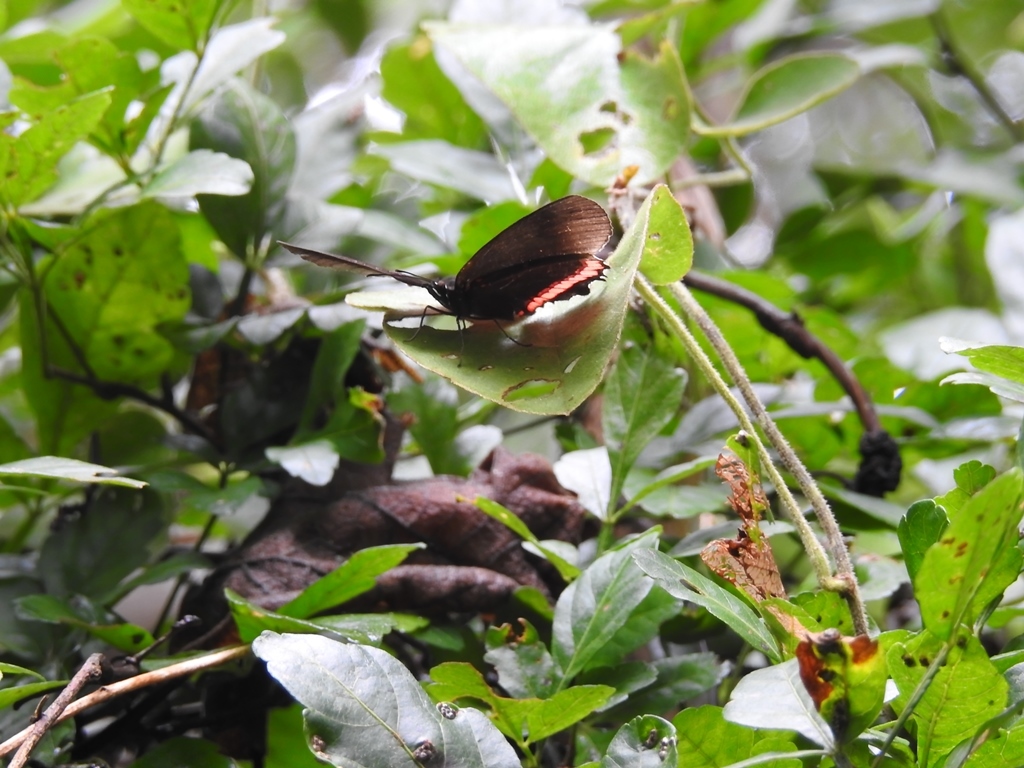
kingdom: Animalia
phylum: Arthropoda
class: Insecta
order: Lepidoptera
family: Nymphalidae
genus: Biblis
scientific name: Biblis aganisa
